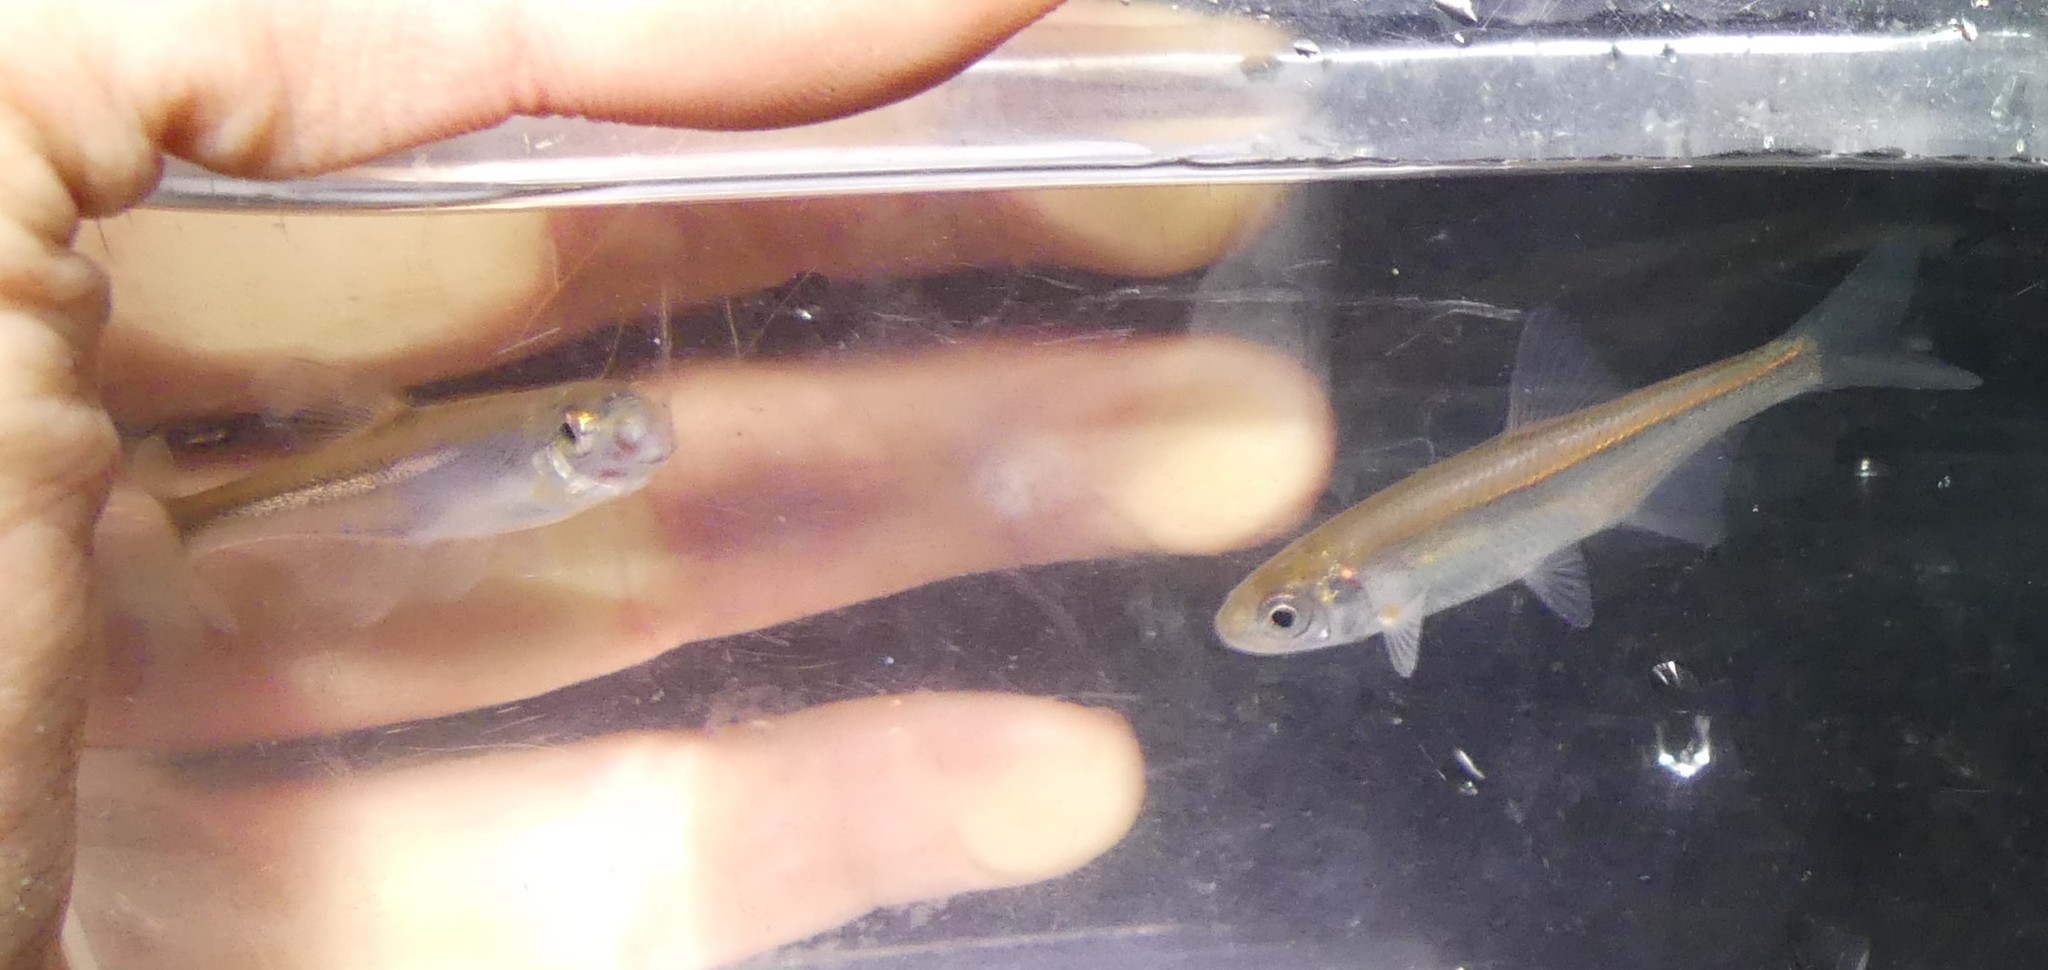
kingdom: Animalia
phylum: Chordata
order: Cypriniformes
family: Cyprinidae
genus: Alburnus
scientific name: Alburnus alburnus
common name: Bleak
